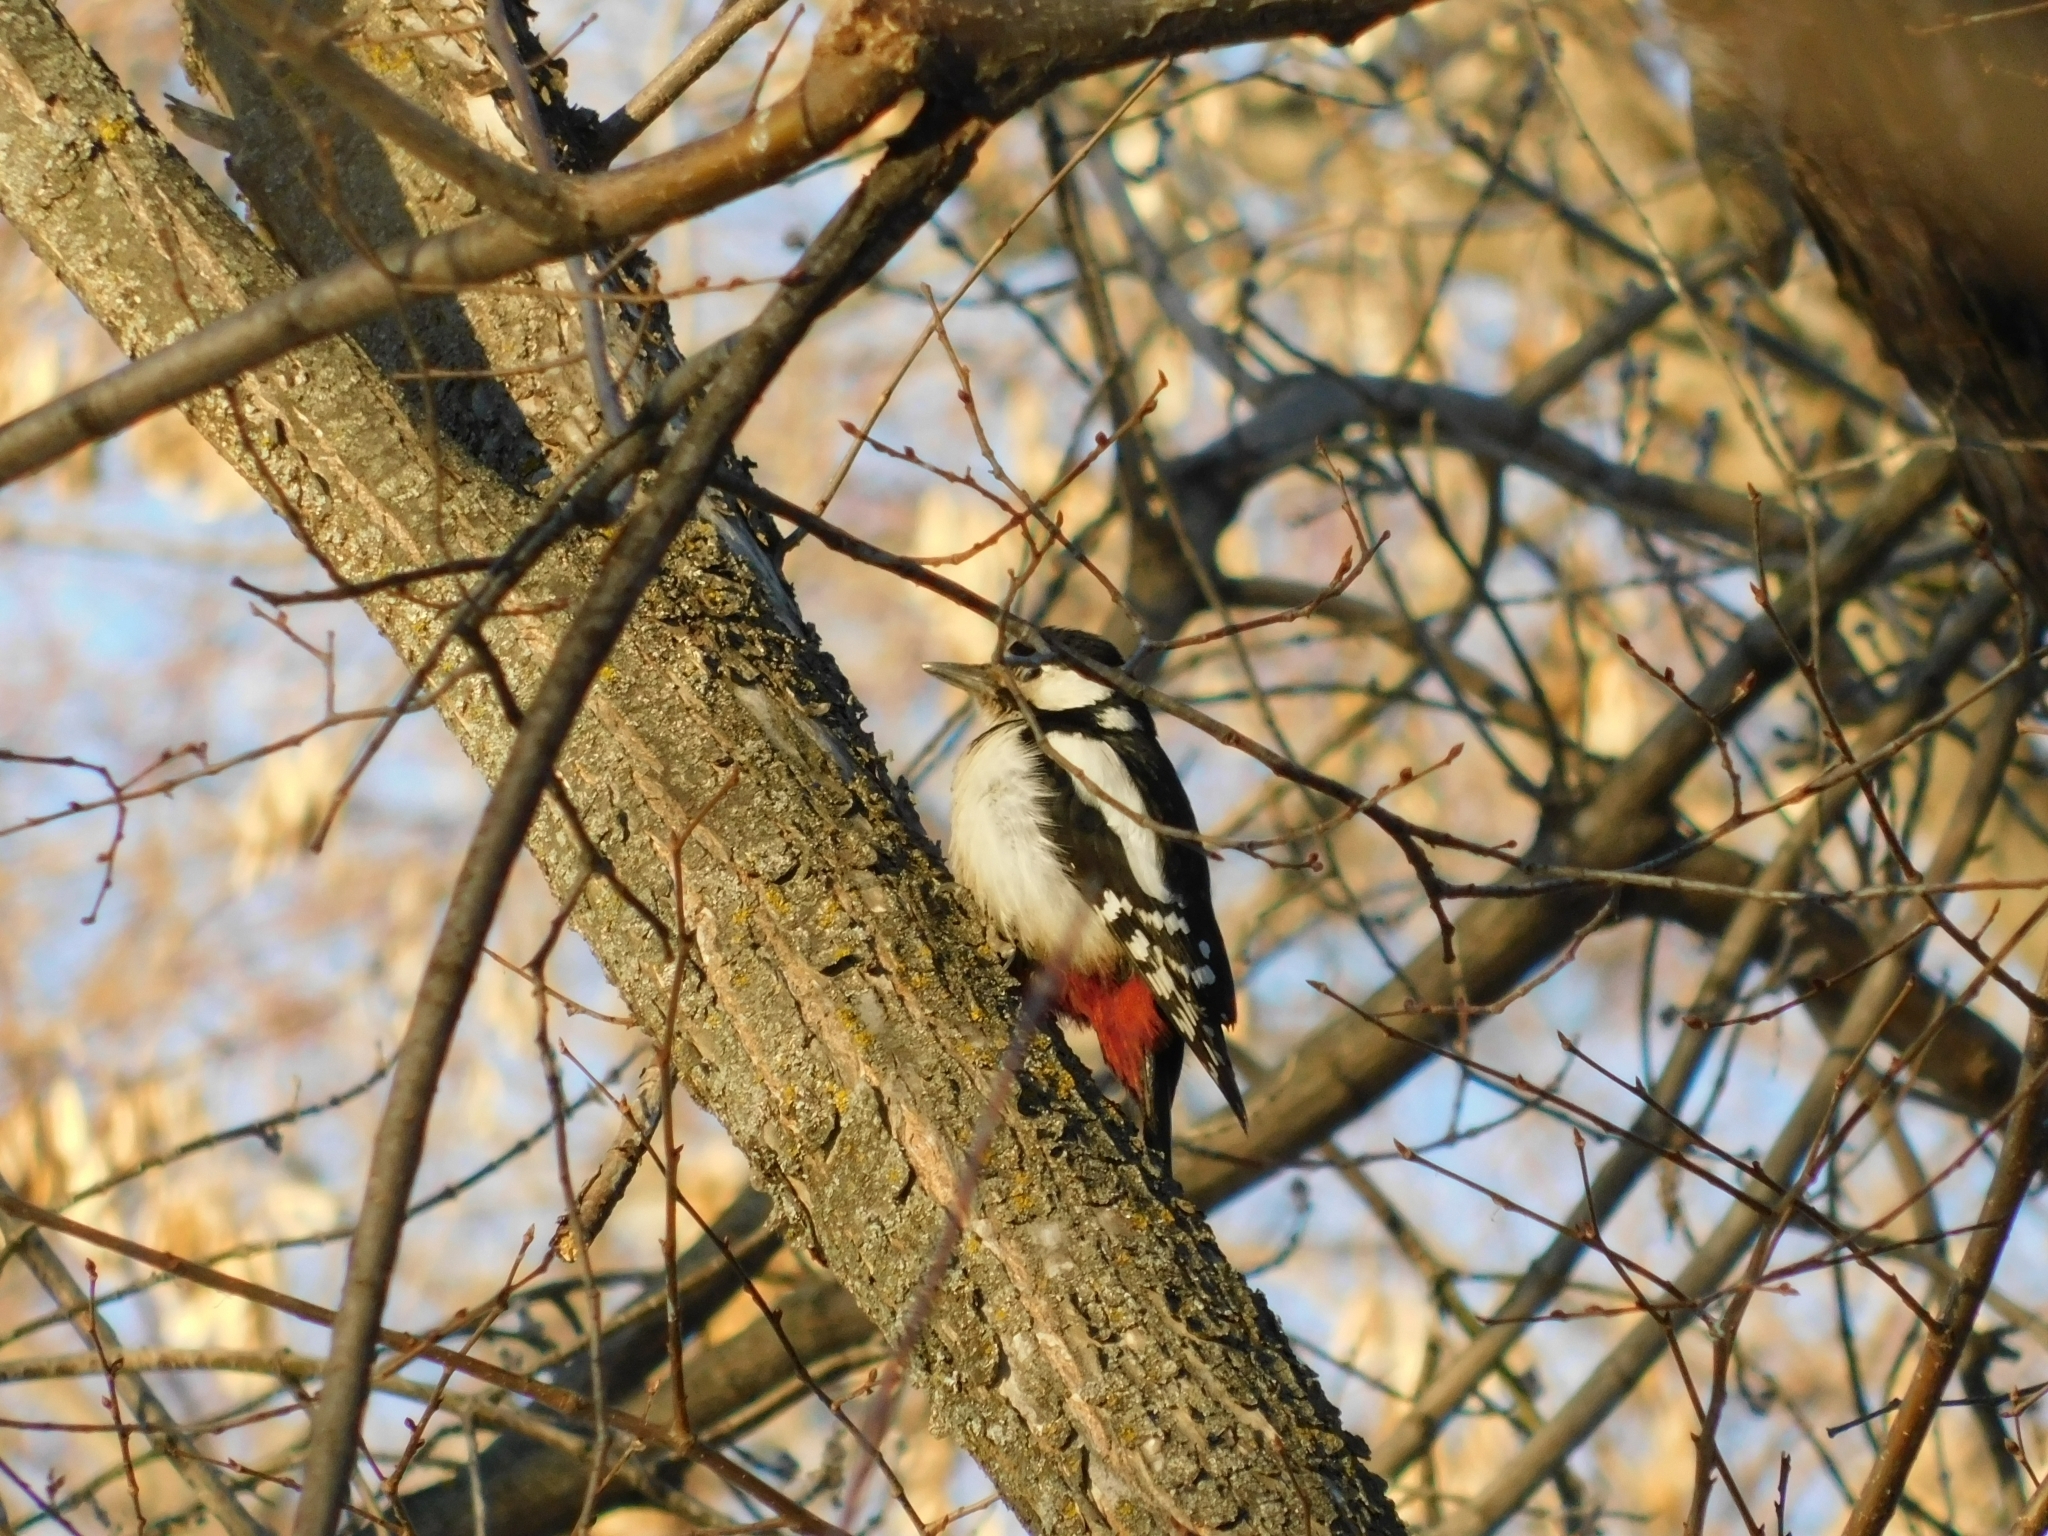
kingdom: Animalia
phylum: Chordata
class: Aves
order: Piciformes
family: Picidae
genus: Dendrocopos
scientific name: Dendrocopos major
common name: Great spotted woodpecker
